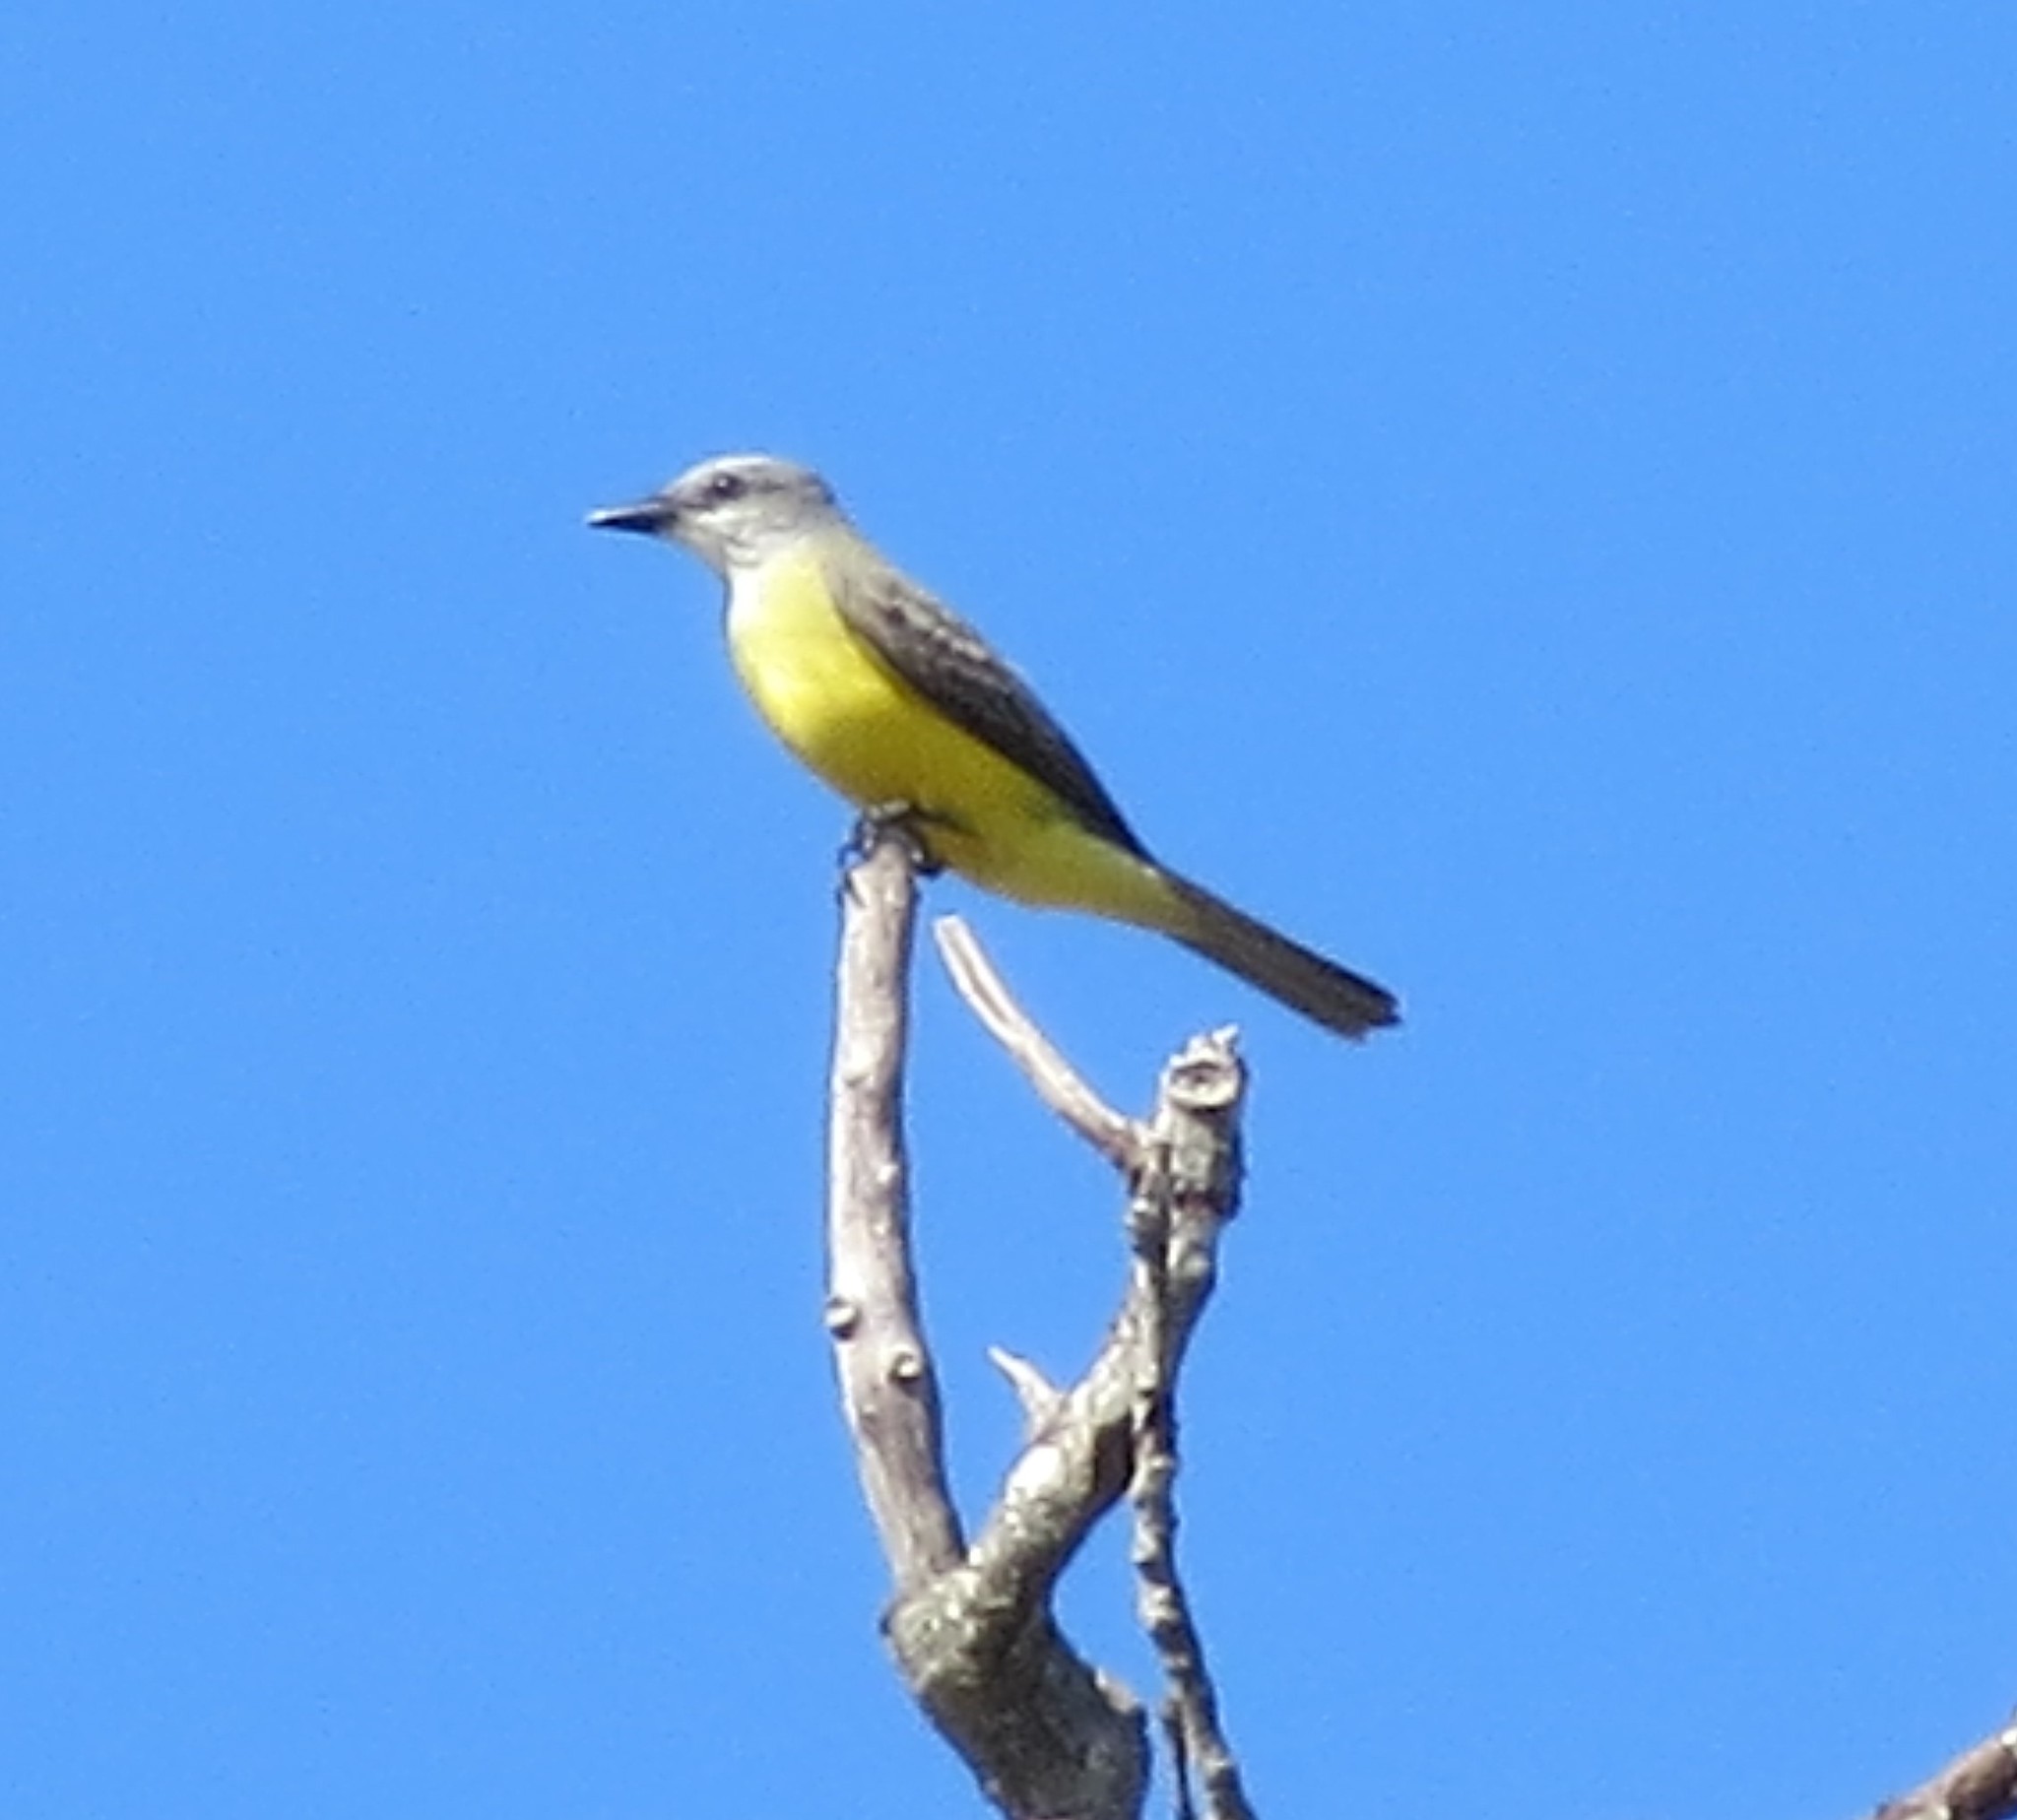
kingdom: Animalia
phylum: Chordata
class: Aves
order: Passeriformes
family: Tyrannidae
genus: Tyrannus
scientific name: Tyrannus couchii
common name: Couch's kingbird
